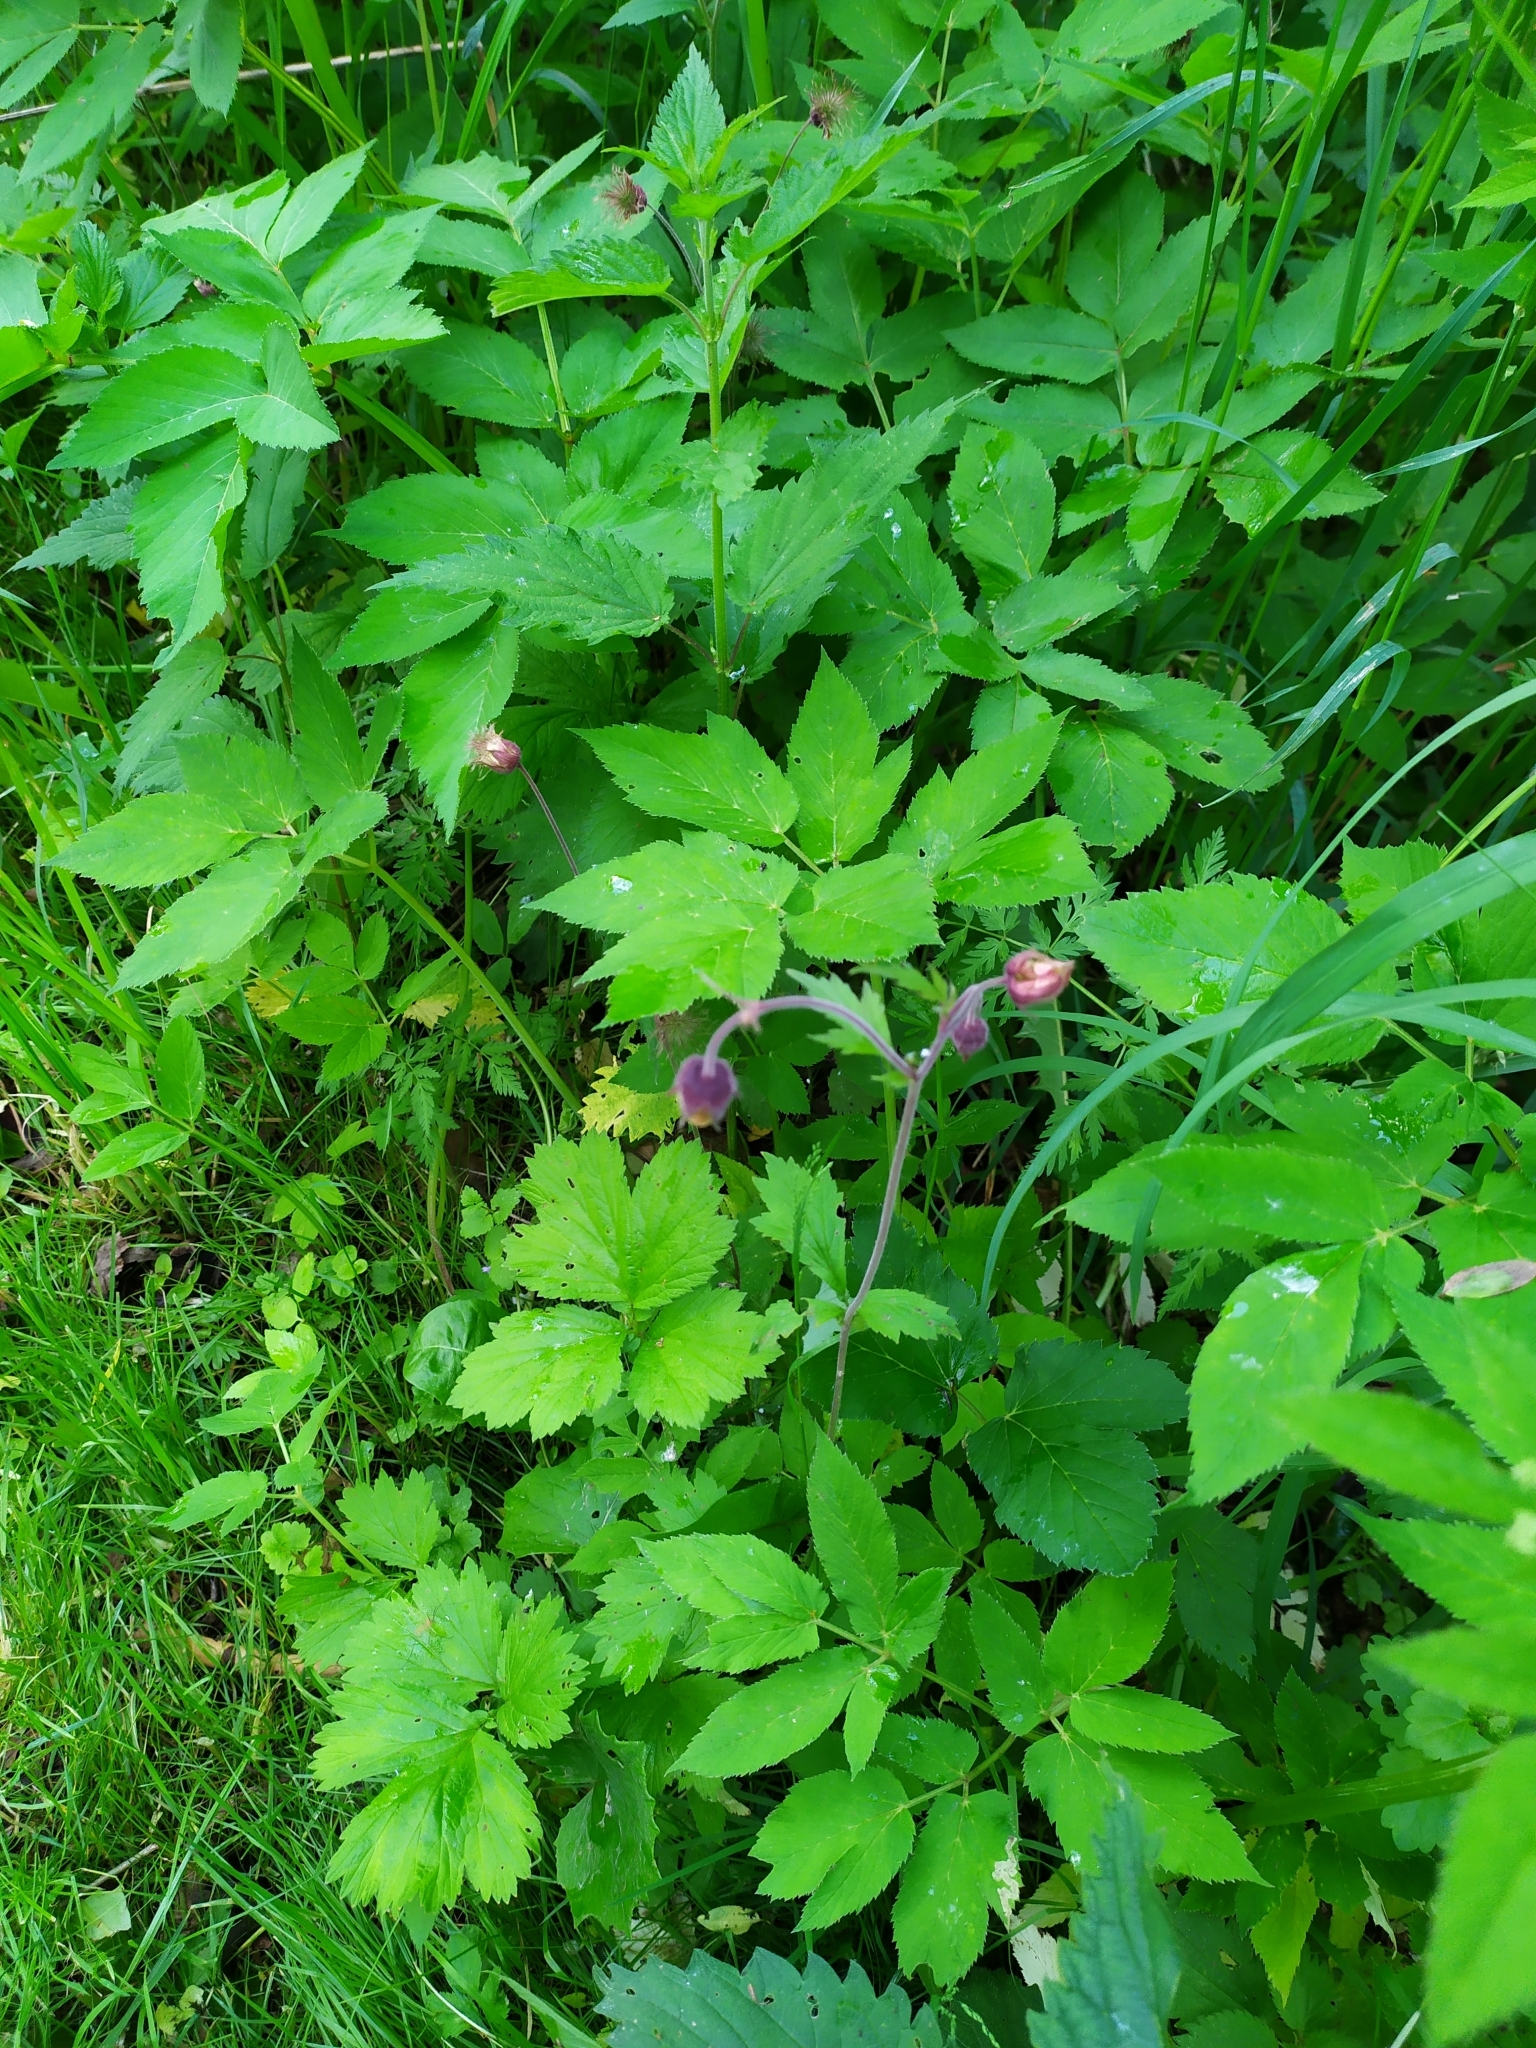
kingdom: Plantae
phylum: Tracheophyta
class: Magnoliopsida
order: Rosales
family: Rosaceae
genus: Geum
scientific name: Geum rivale
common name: Water avens
